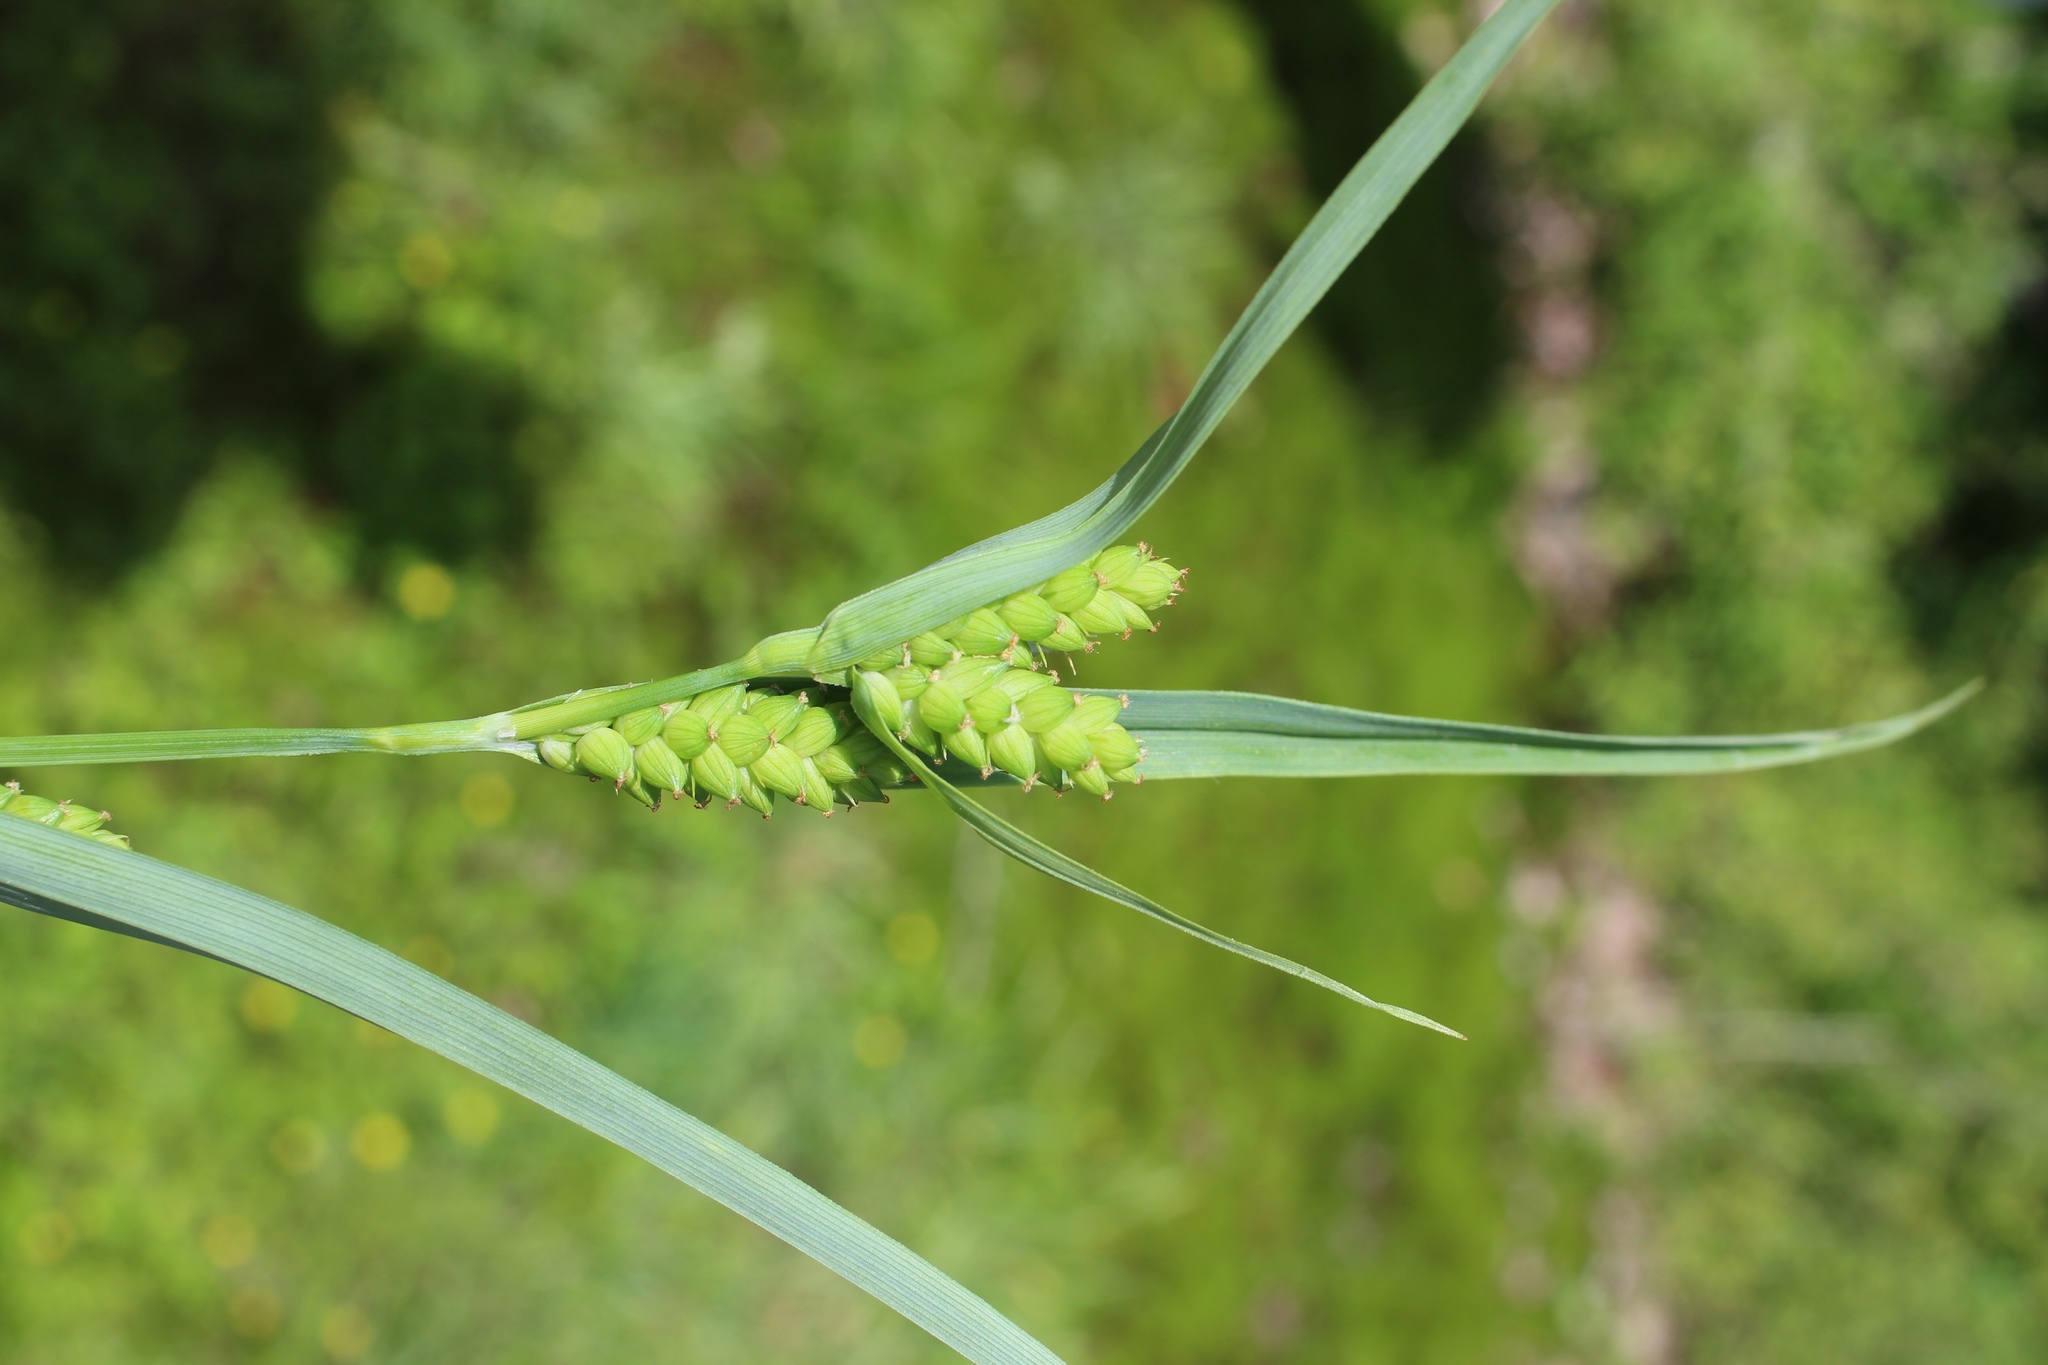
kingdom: Plantae
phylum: Tracheophyta
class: Liliopsida
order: Poales
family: Cyperaceae
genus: Carex
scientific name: Carex glaucodea
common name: Blue sedge
